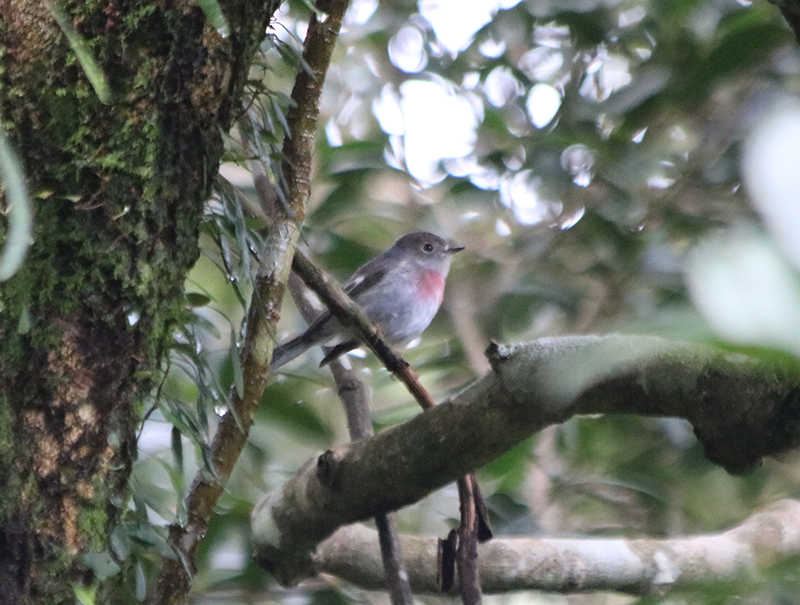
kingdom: Animalia
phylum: Chordata
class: Aves
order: Passeriformes
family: Petroicidae
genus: Petroica
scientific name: Petroica rosea
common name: Rose robin
